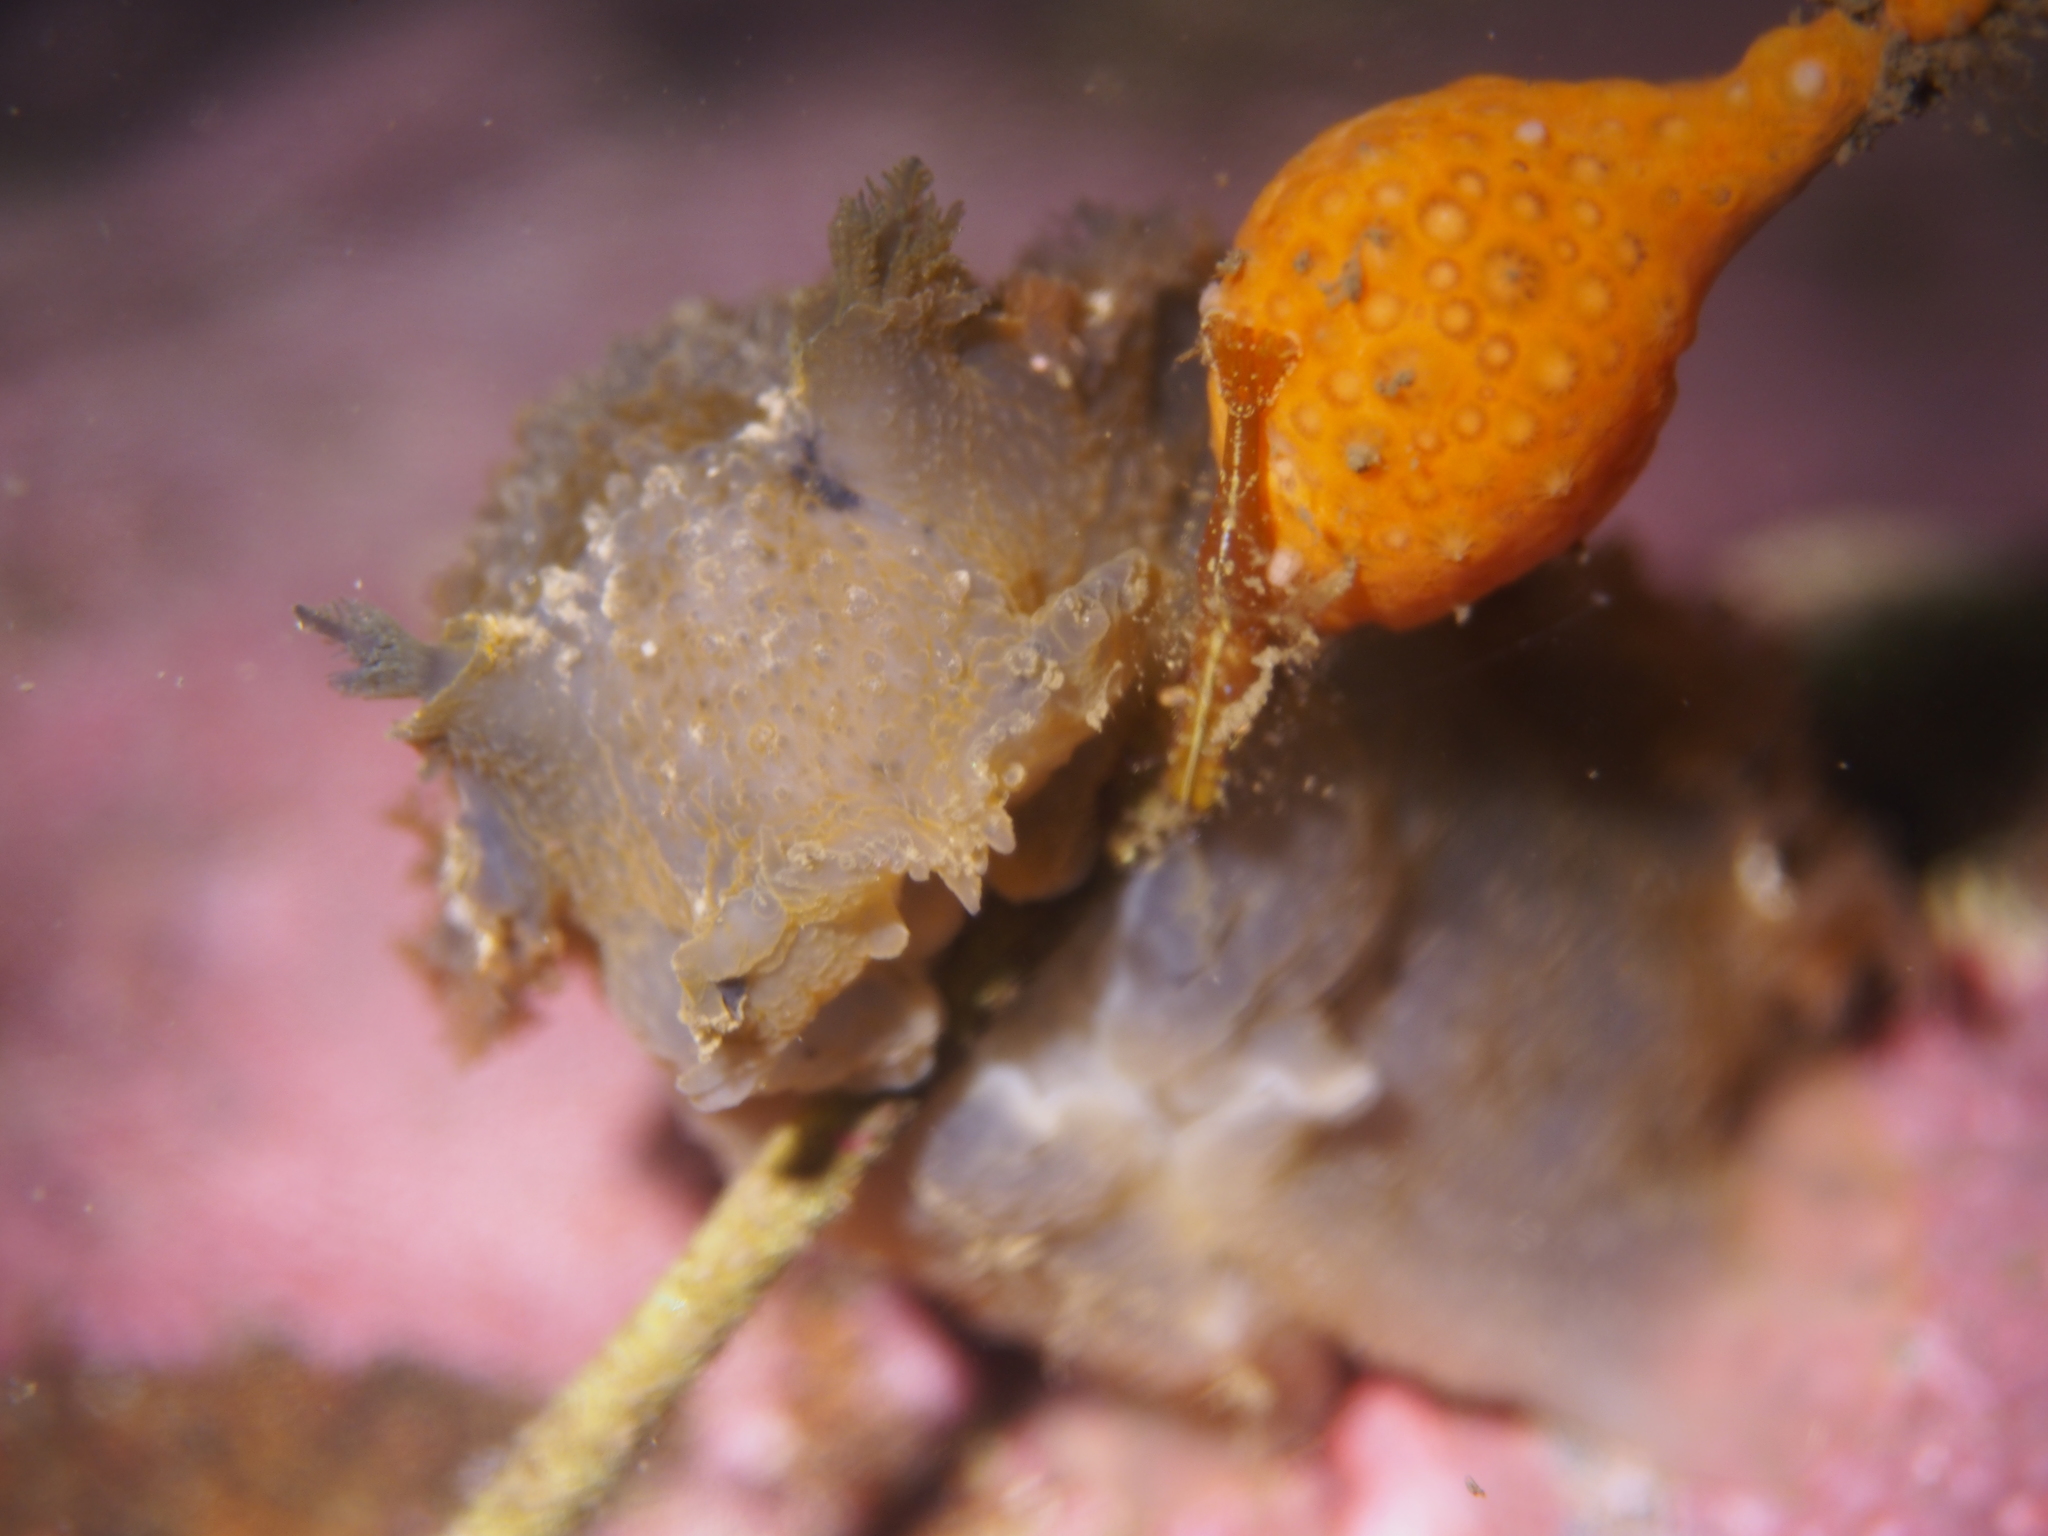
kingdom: Animalia
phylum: Mollusca
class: Gastropoda
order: Nudibranchia
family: Tritoniidae
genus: Tritonia
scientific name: Tritonia hombergii
